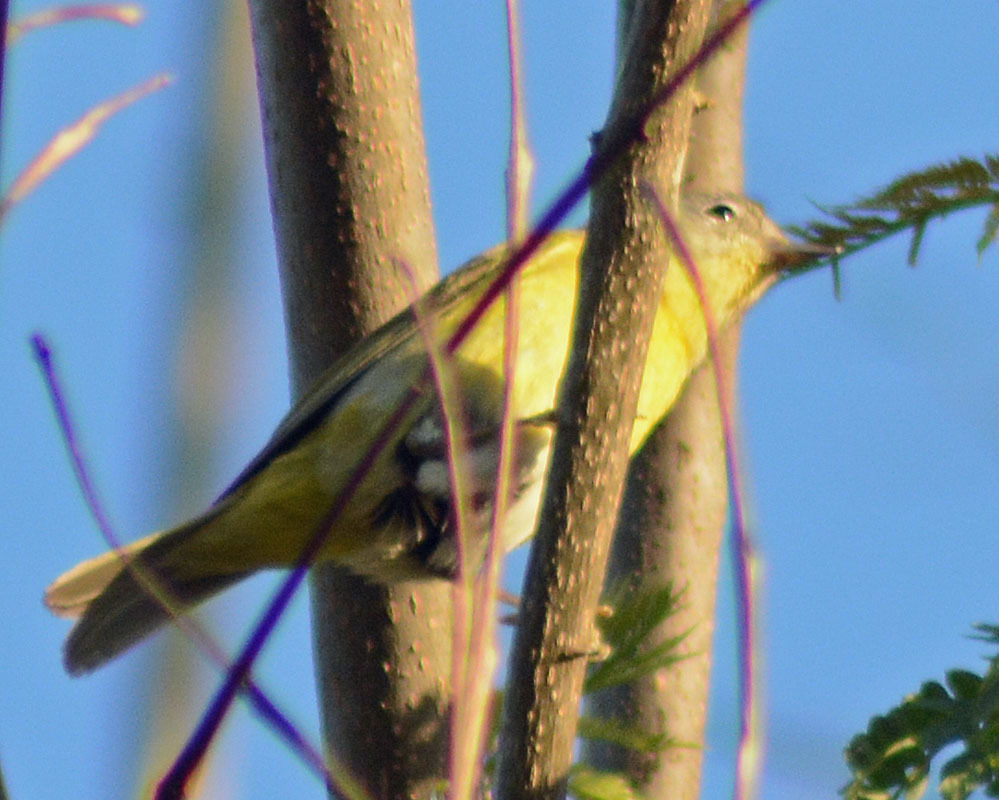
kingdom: Animalia
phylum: Chordata
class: Aves
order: Passeriformes
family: Parulidae
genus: Leiothlypis
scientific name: Leiothlypis ruficapilla
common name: Nashville warbler
